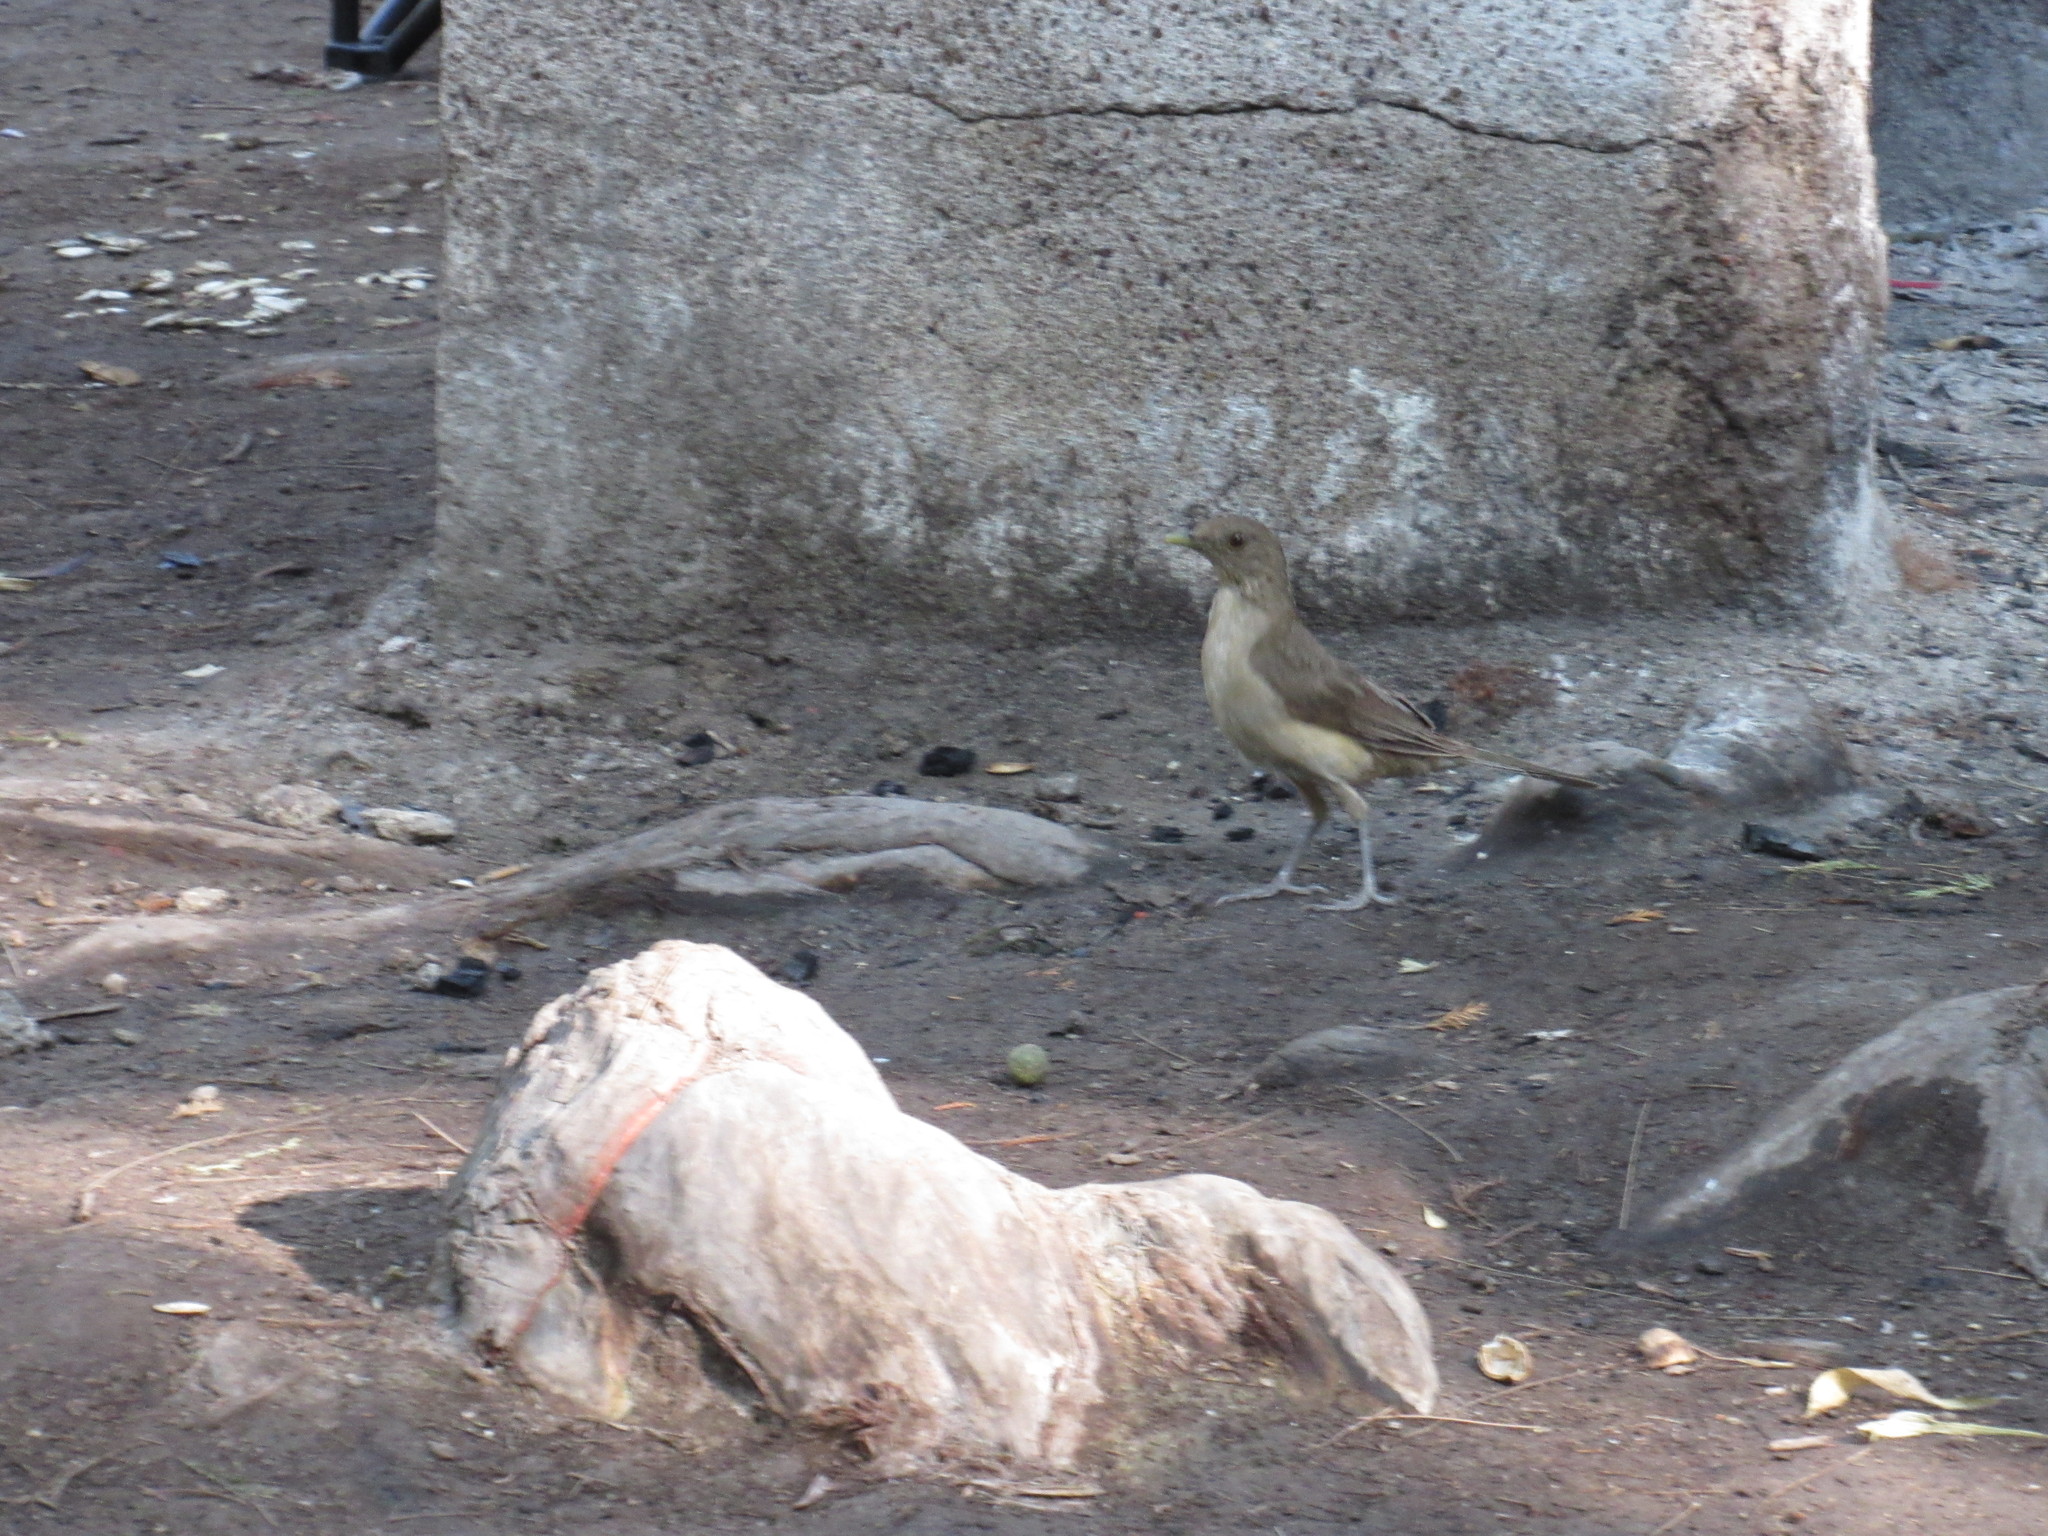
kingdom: Animalia
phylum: Chordata
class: Aves
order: Passeriformes
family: Turdidae
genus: Turdus
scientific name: Turdus grayi
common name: Clay-colored thrush
